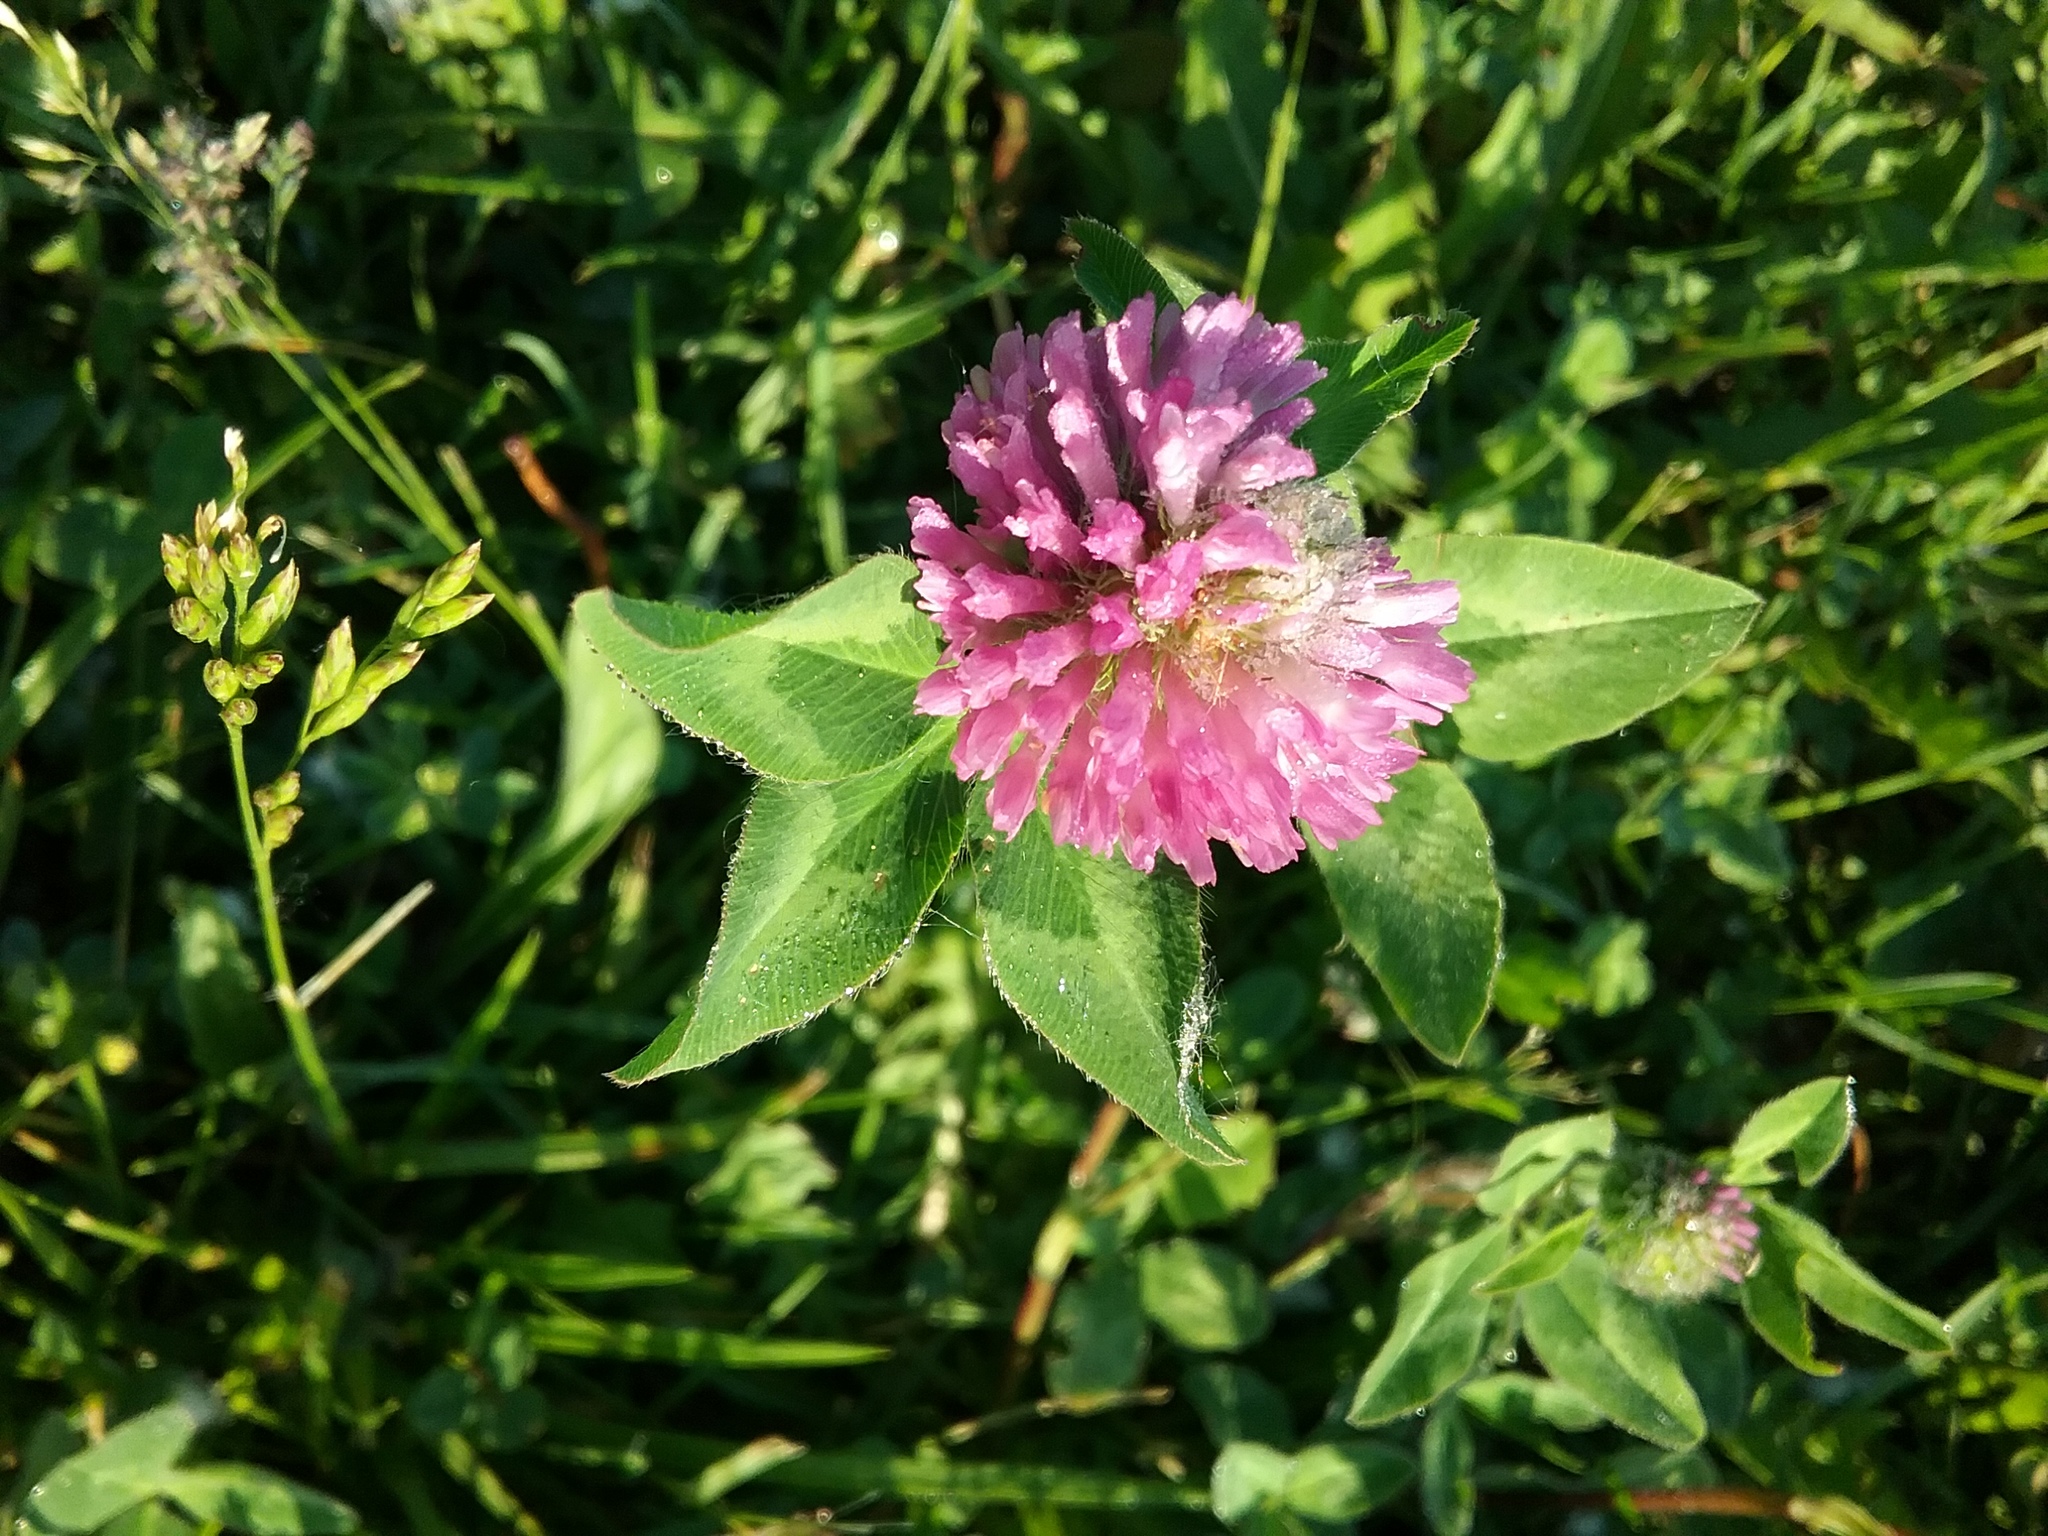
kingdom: Plantae
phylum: Tracheophyta
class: Magnoliopsida
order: Fabales
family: Fabaceae
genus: Trifolium
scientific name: Trifolium pratense
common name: Red clover
